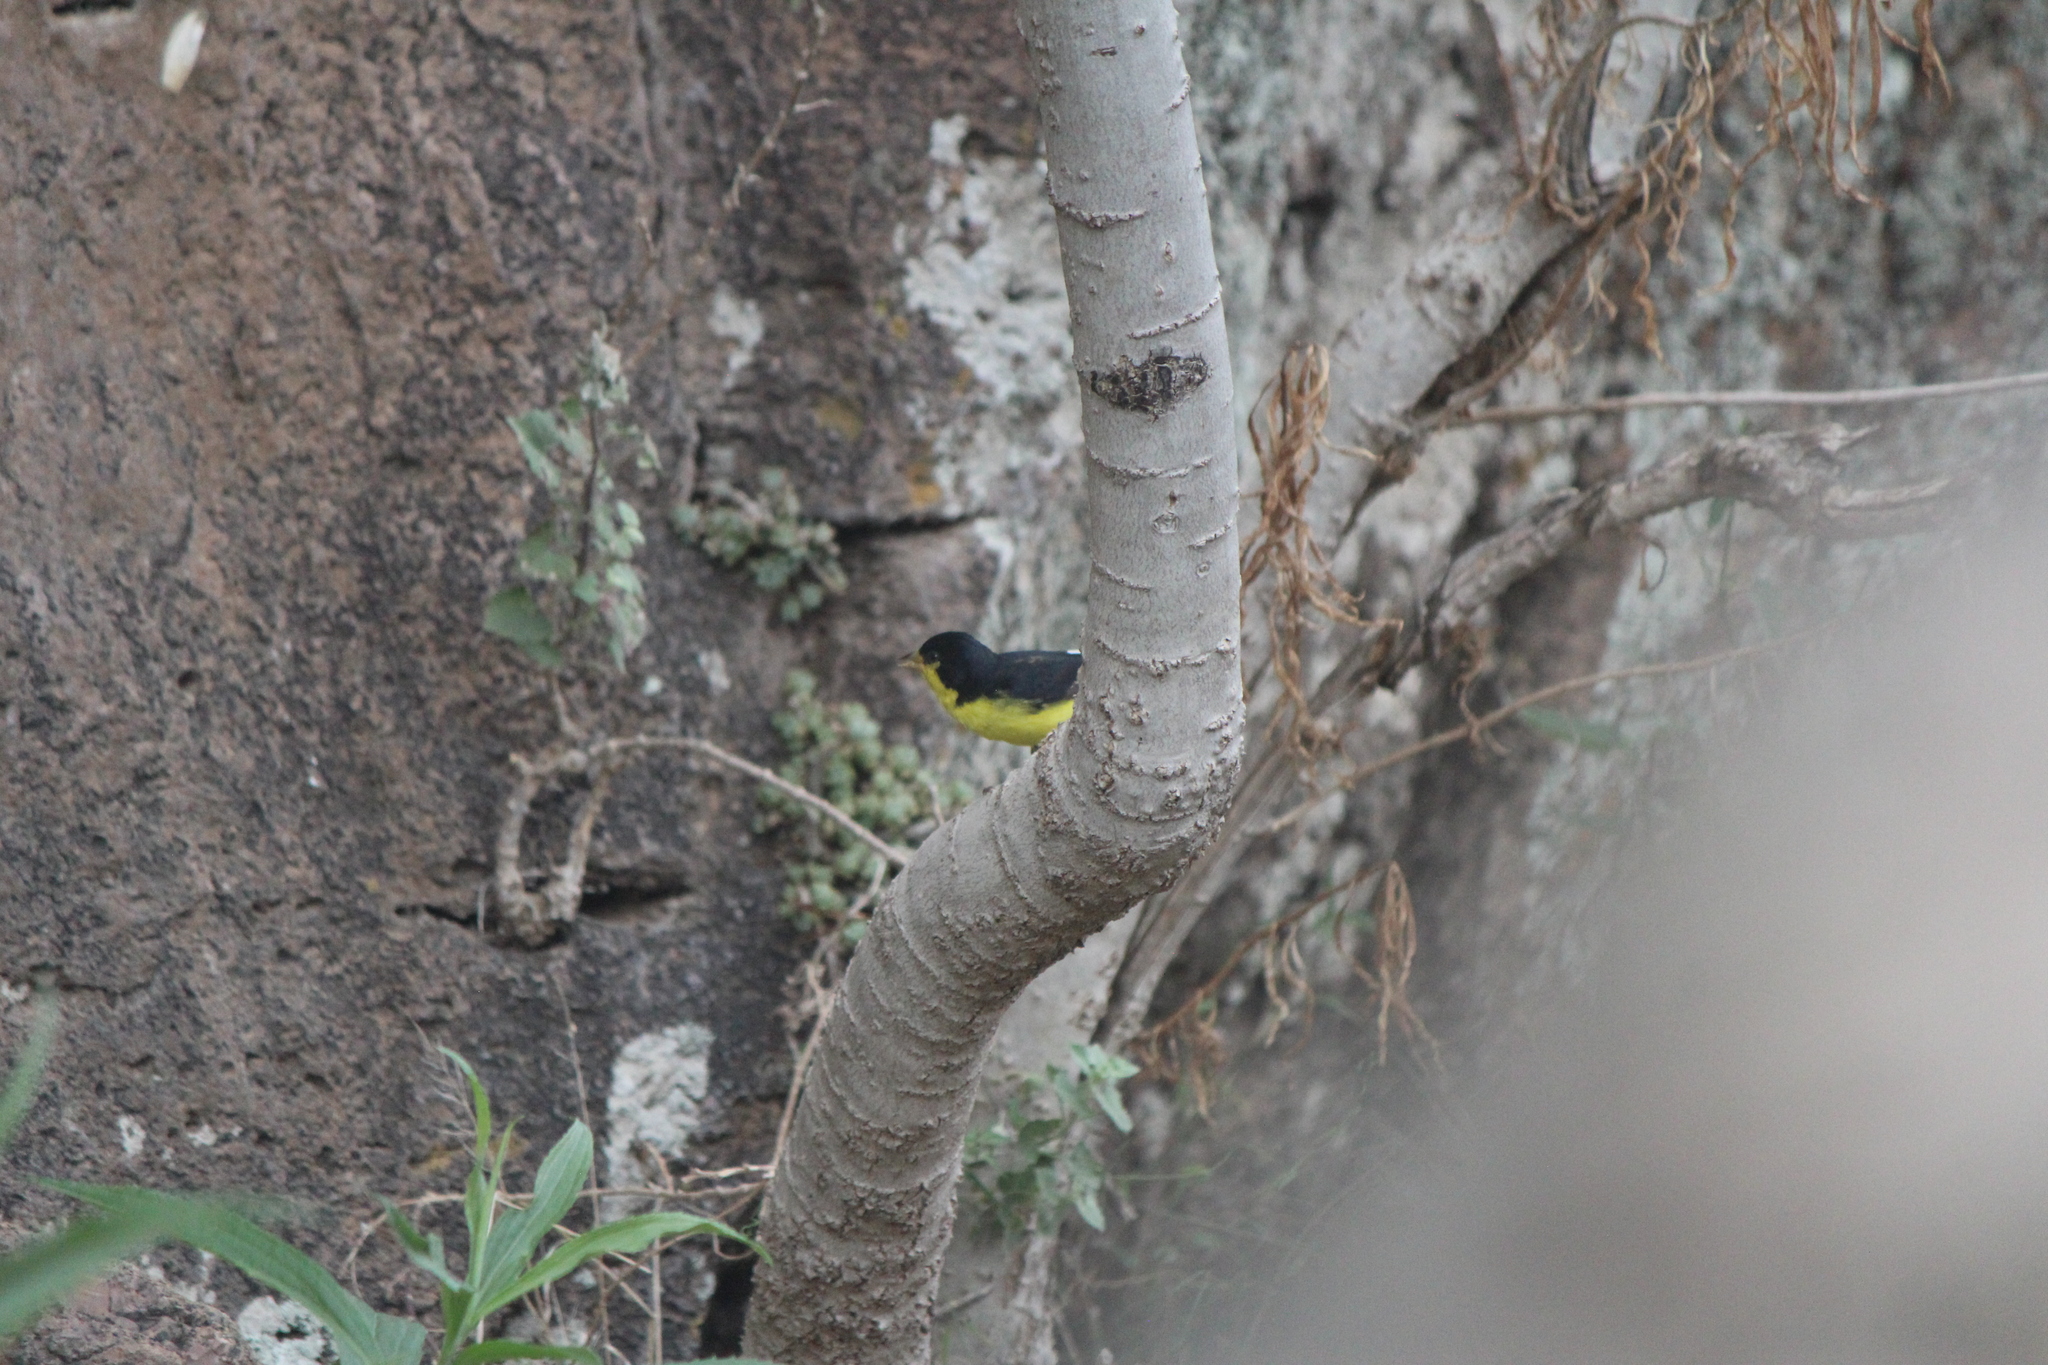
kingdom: Animalia
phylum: Chordata
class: Aves
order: Passeriformes
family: Fringillidae
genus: Spinus
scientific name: Spinus psaltria
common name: Lesser goldfinch
